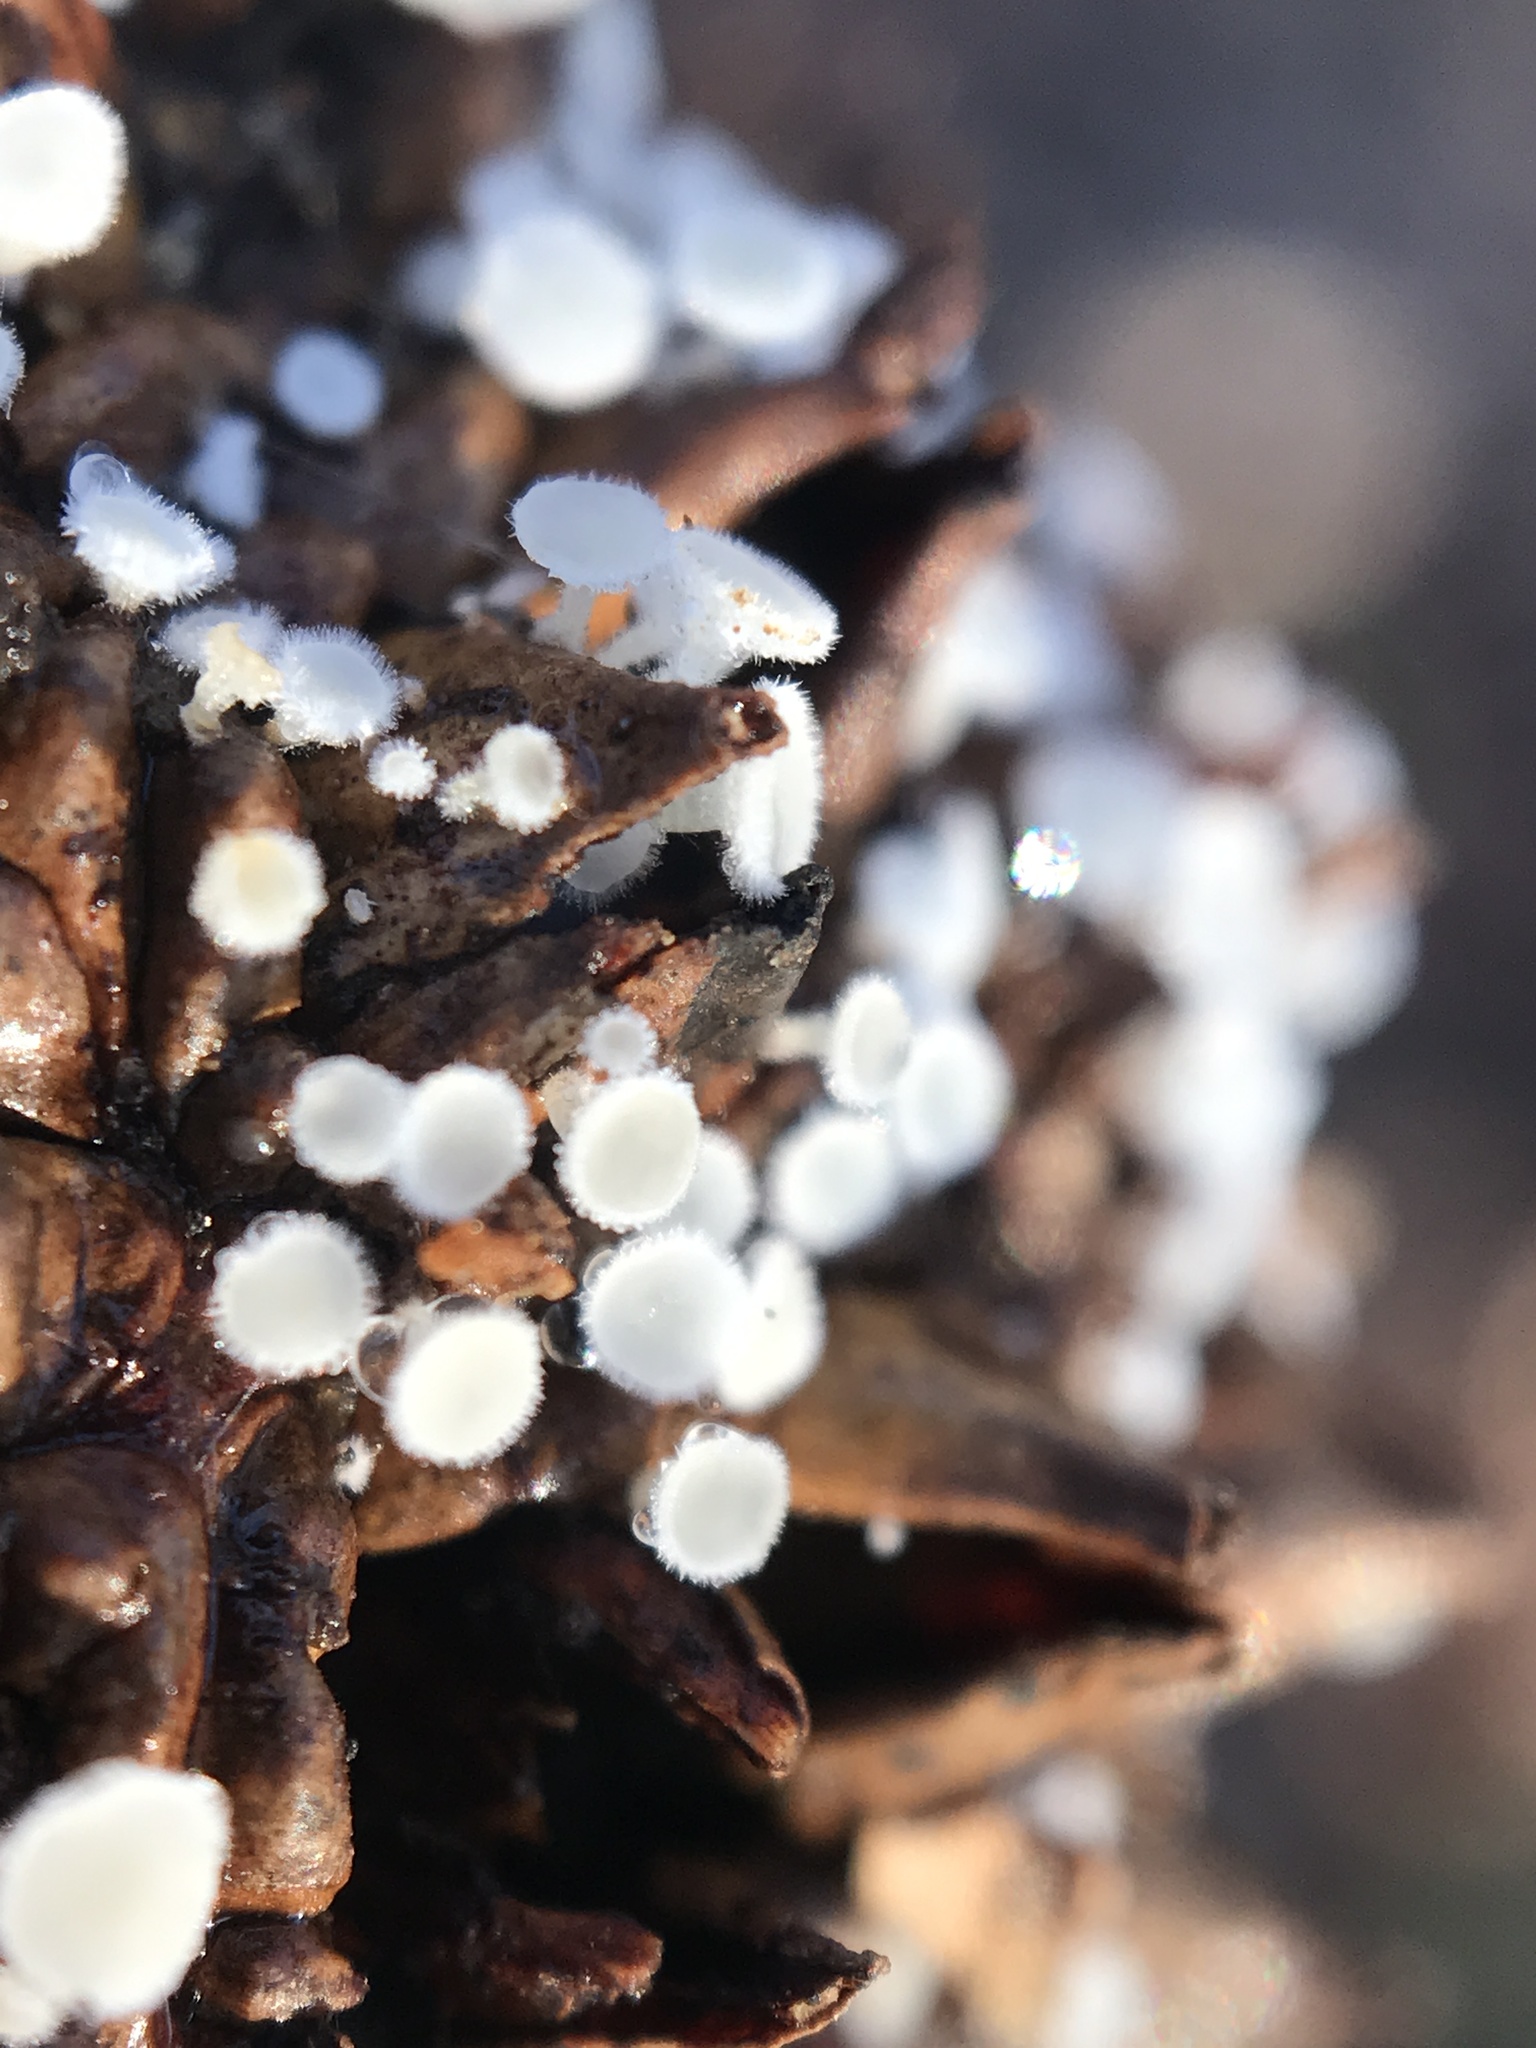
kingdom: Fungi
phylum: Ascomycota
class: Leotiomycetes
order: Helotiales
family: Lachnaceae
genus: Lachnum
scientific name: Lachnum virgineum
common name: Snowy disco
